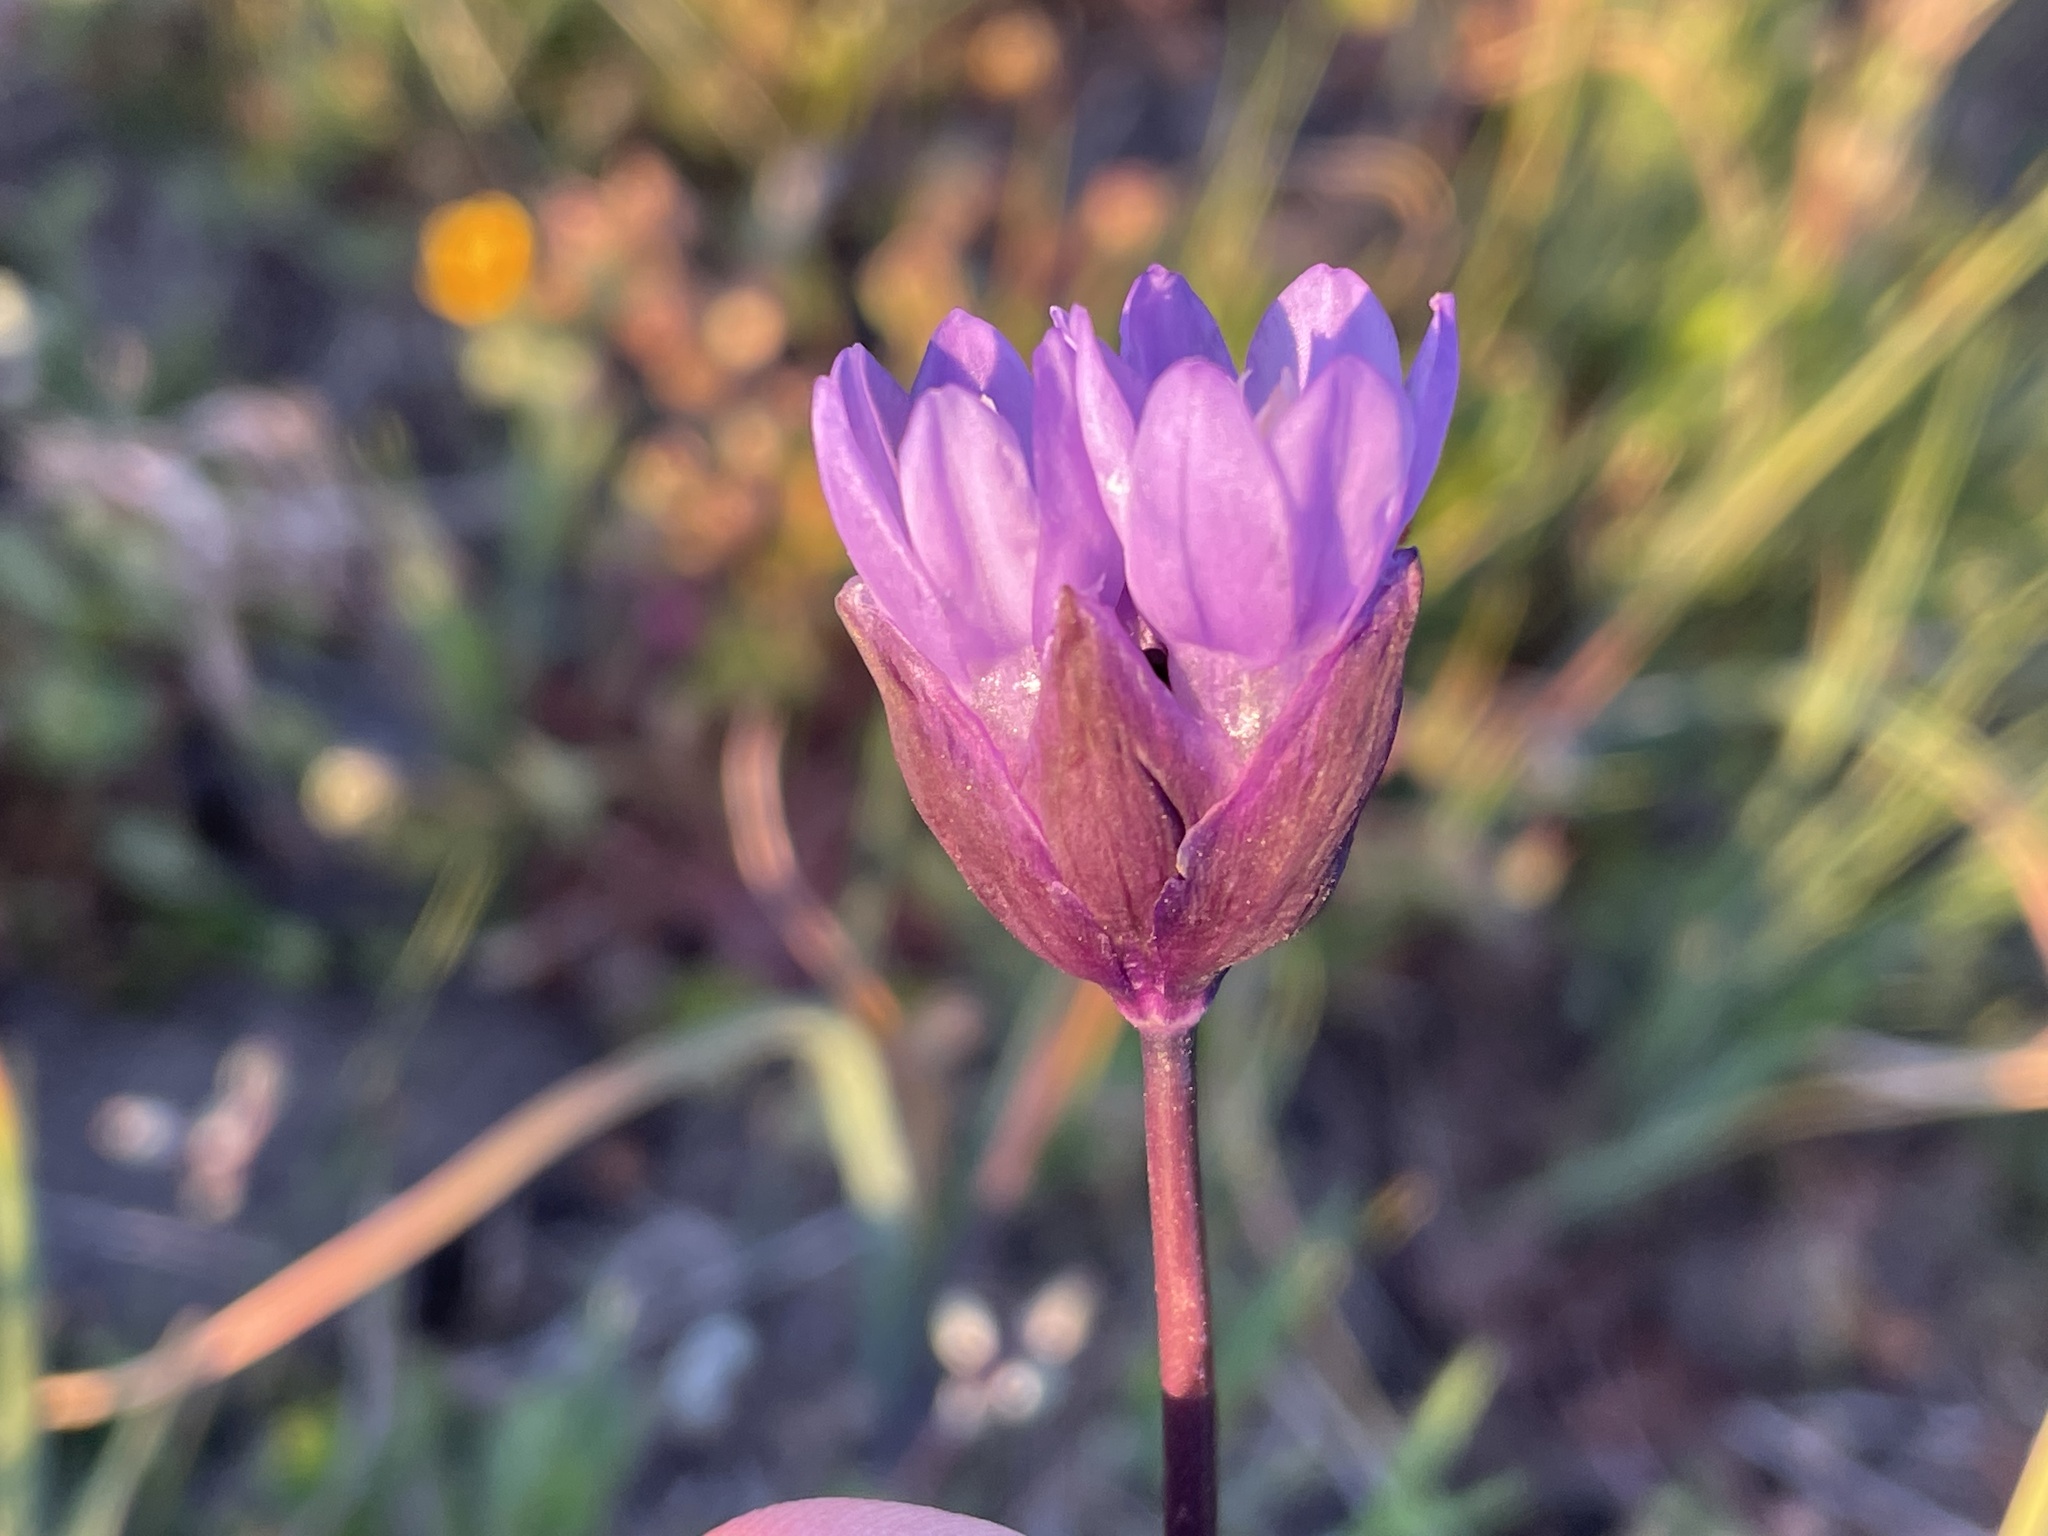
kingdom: Plantae
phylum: Tracheophyta
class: Liliopsida
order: Asparagales
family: Asparagaceae
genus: Dipterostemon
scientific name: Dipterostemon capitatus
